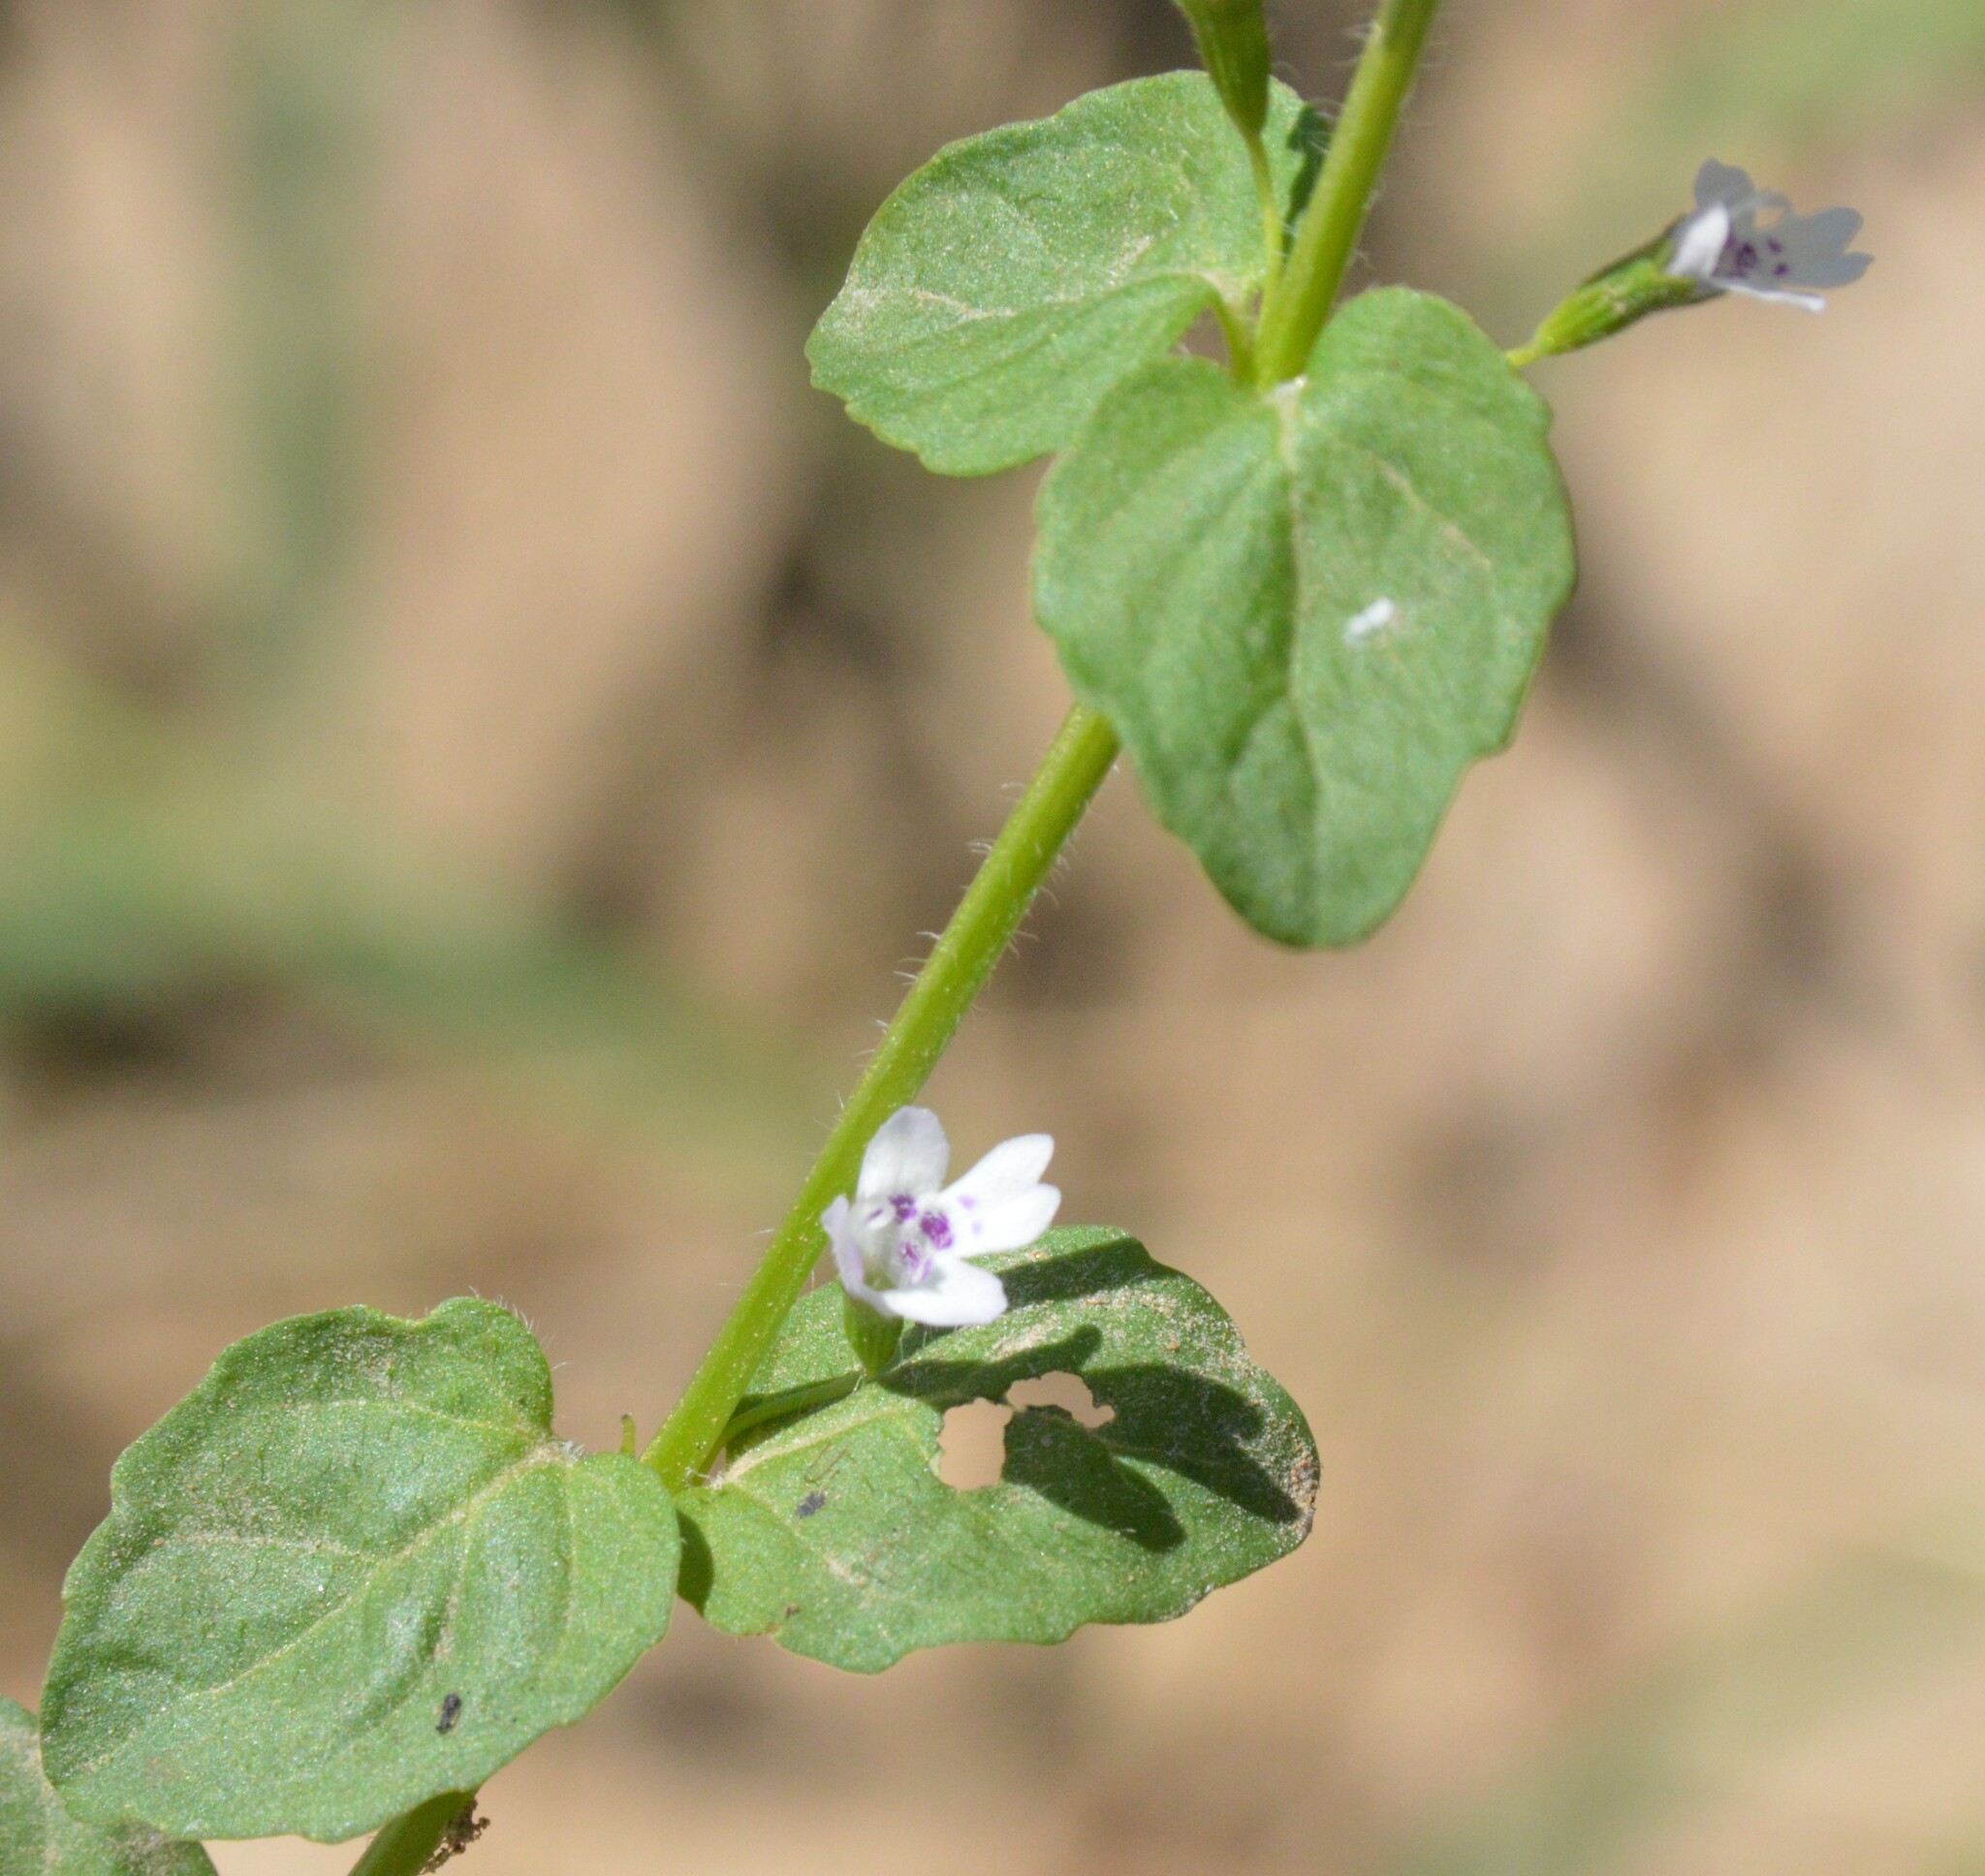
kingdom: Plantae
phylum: Tracheophyta
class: Magnoliopsida
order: Lamiales
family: Lamiaceae
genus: Clinopodium
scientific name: Clinopodium brownei
